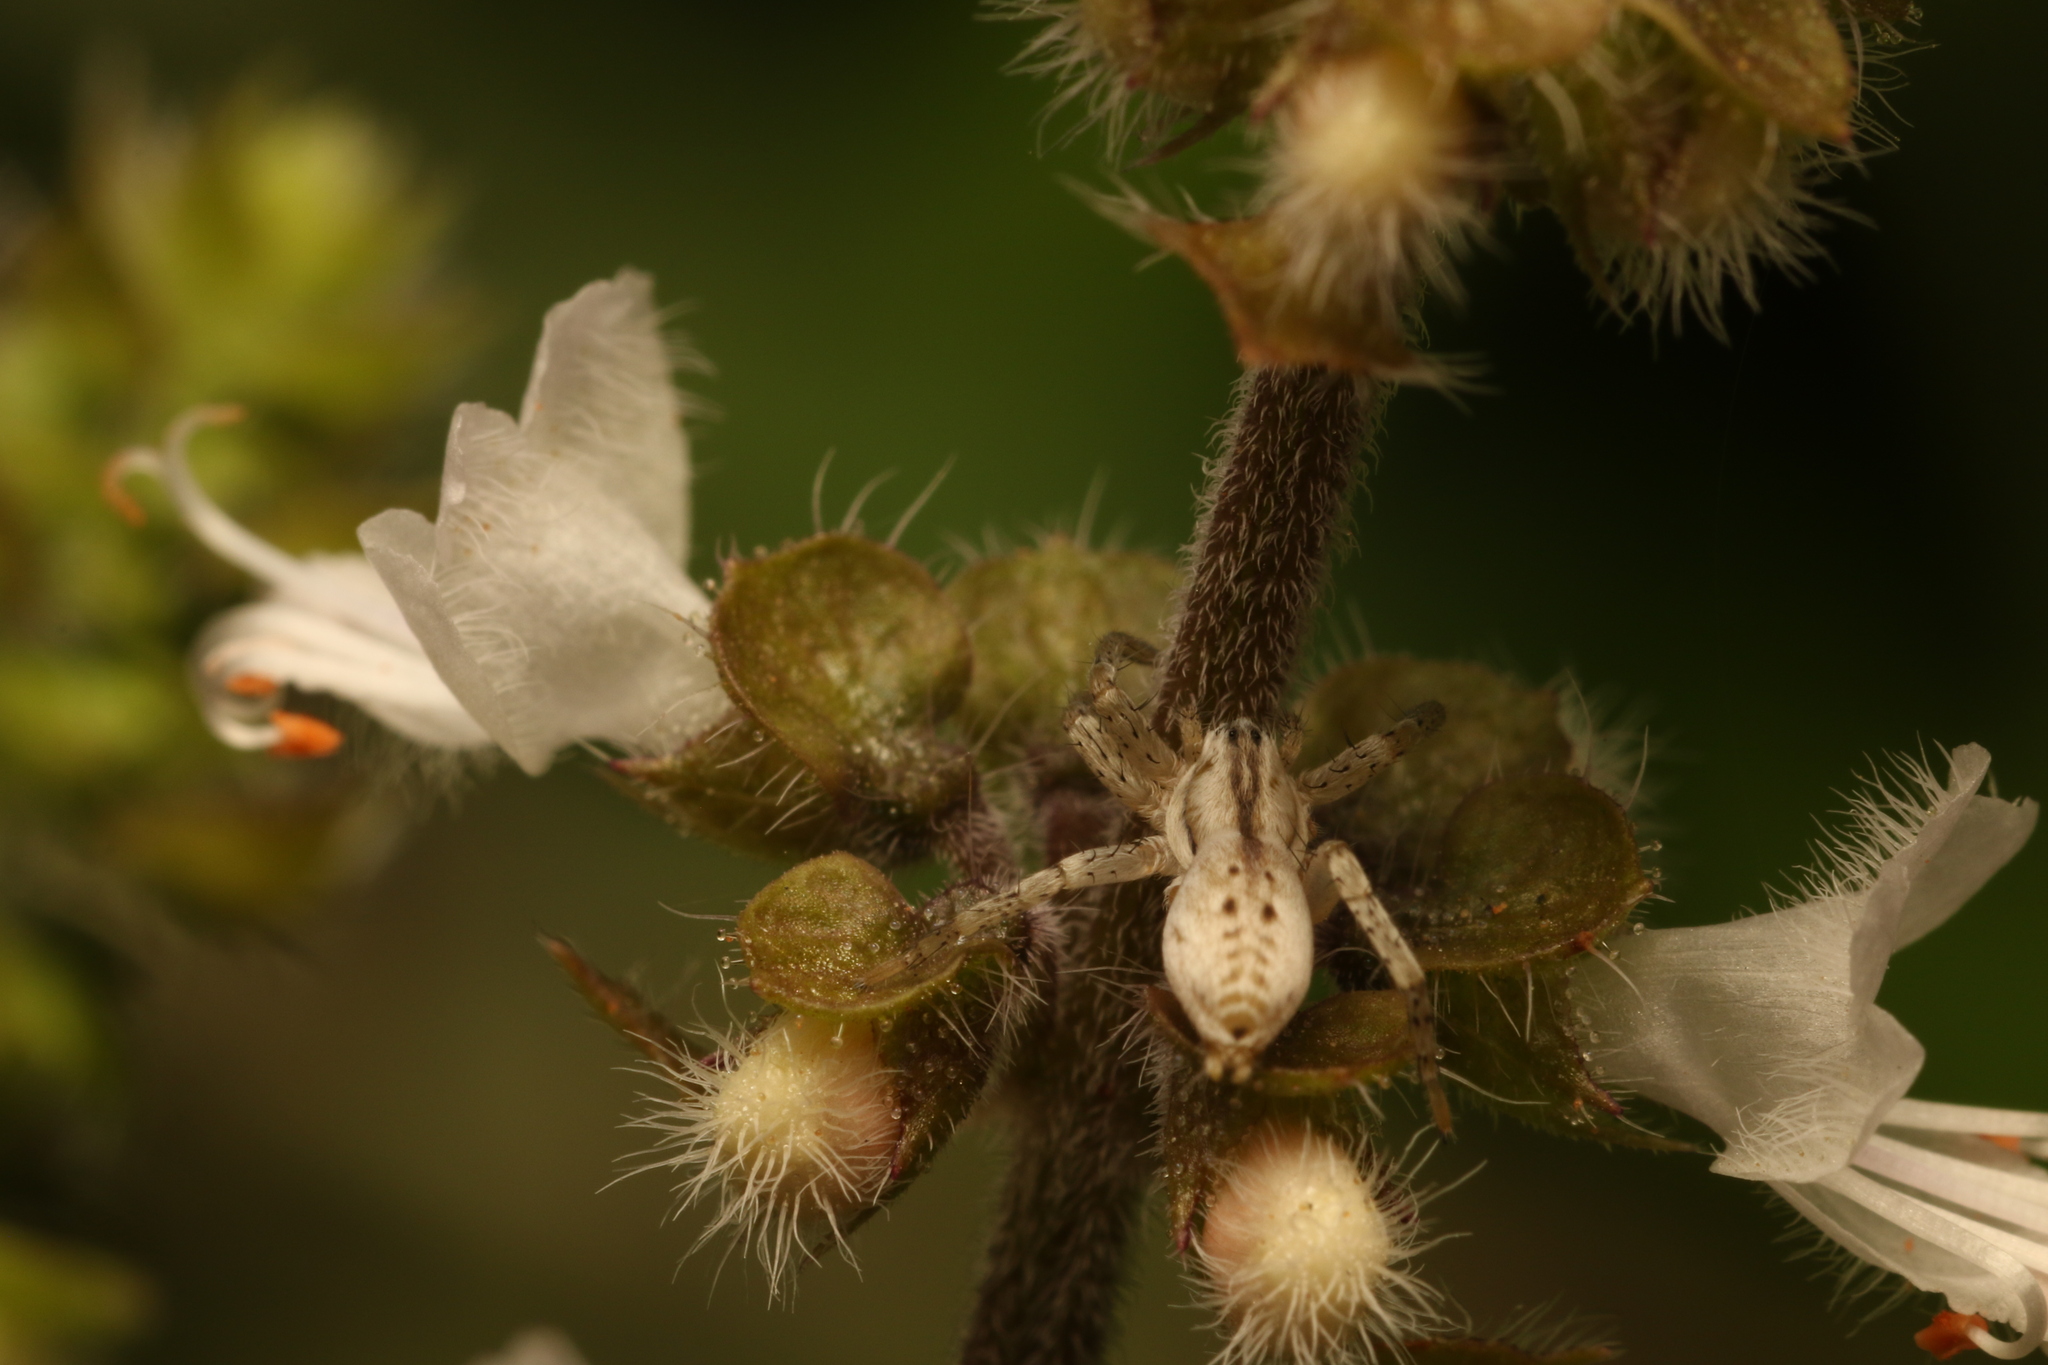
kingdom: Animalia
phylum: Arthropoda
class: Arachnida
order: Araneae
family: Anyphaenidae
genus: Arachosia
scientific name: Arachosia praesignis
